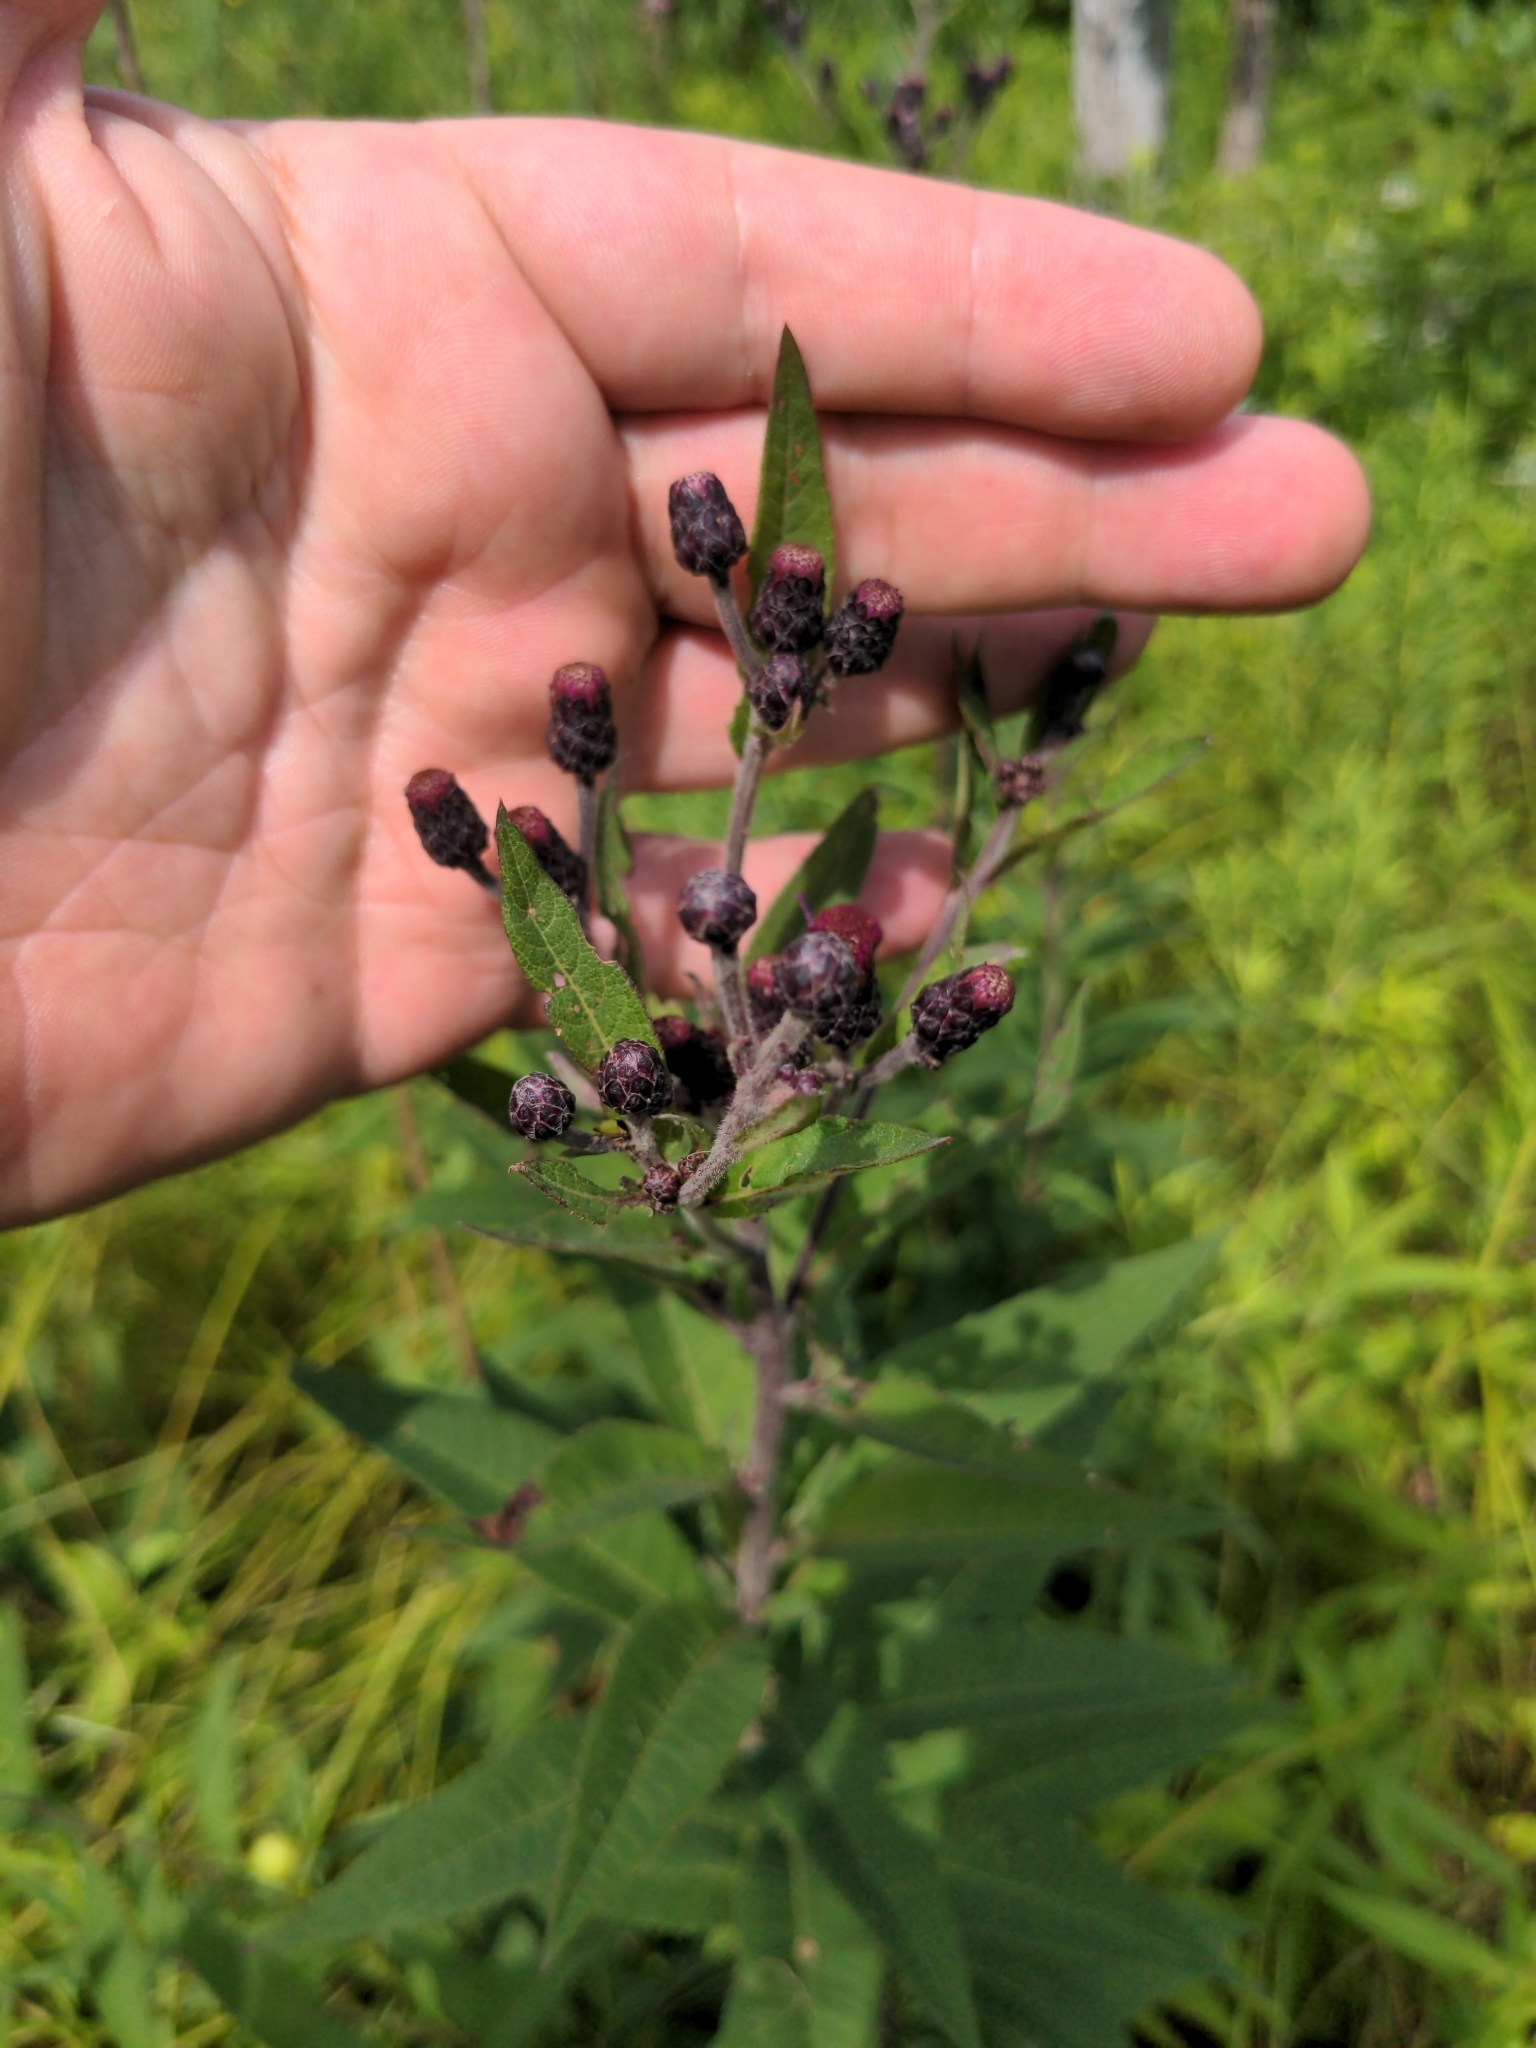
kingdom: Plantae
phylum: Tracheophyta
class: Magnoliopsida
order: Asterales
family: Asteraceae
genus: Vernonia
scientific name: Vernonia missurica
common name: Missouri ironweed
